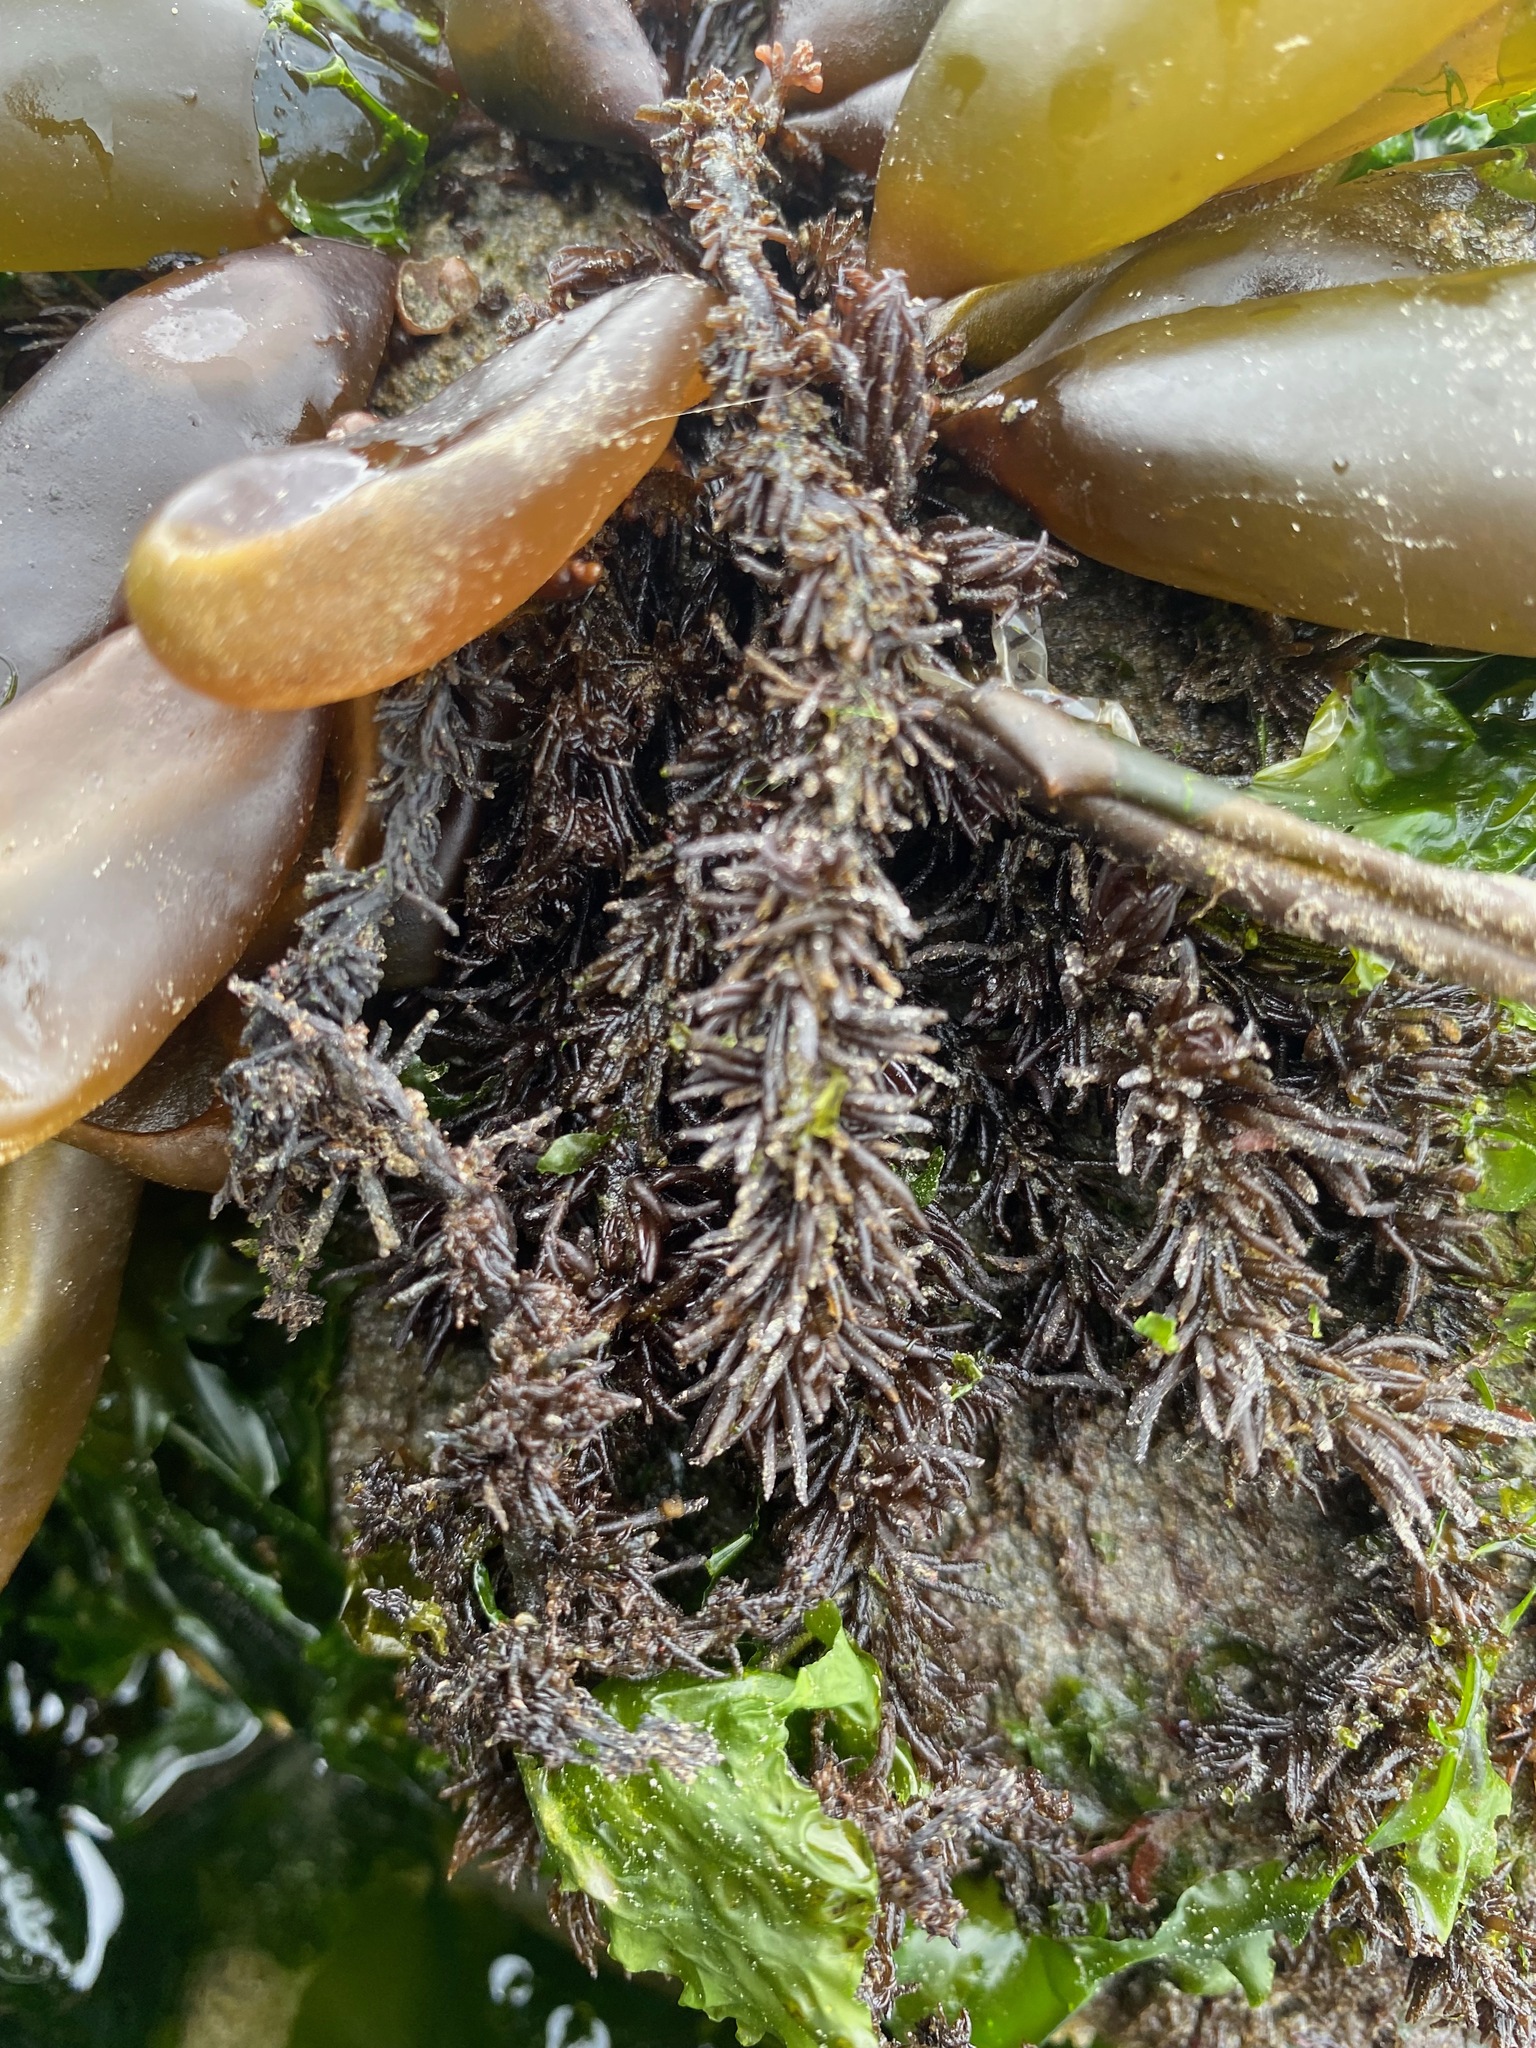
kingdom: Plantae
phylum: Rhodophyta
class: Florideophyceae
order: Ceramiales
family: Rhodomelaceae
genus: Neorhodomela
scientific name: Neorhodomela larix
